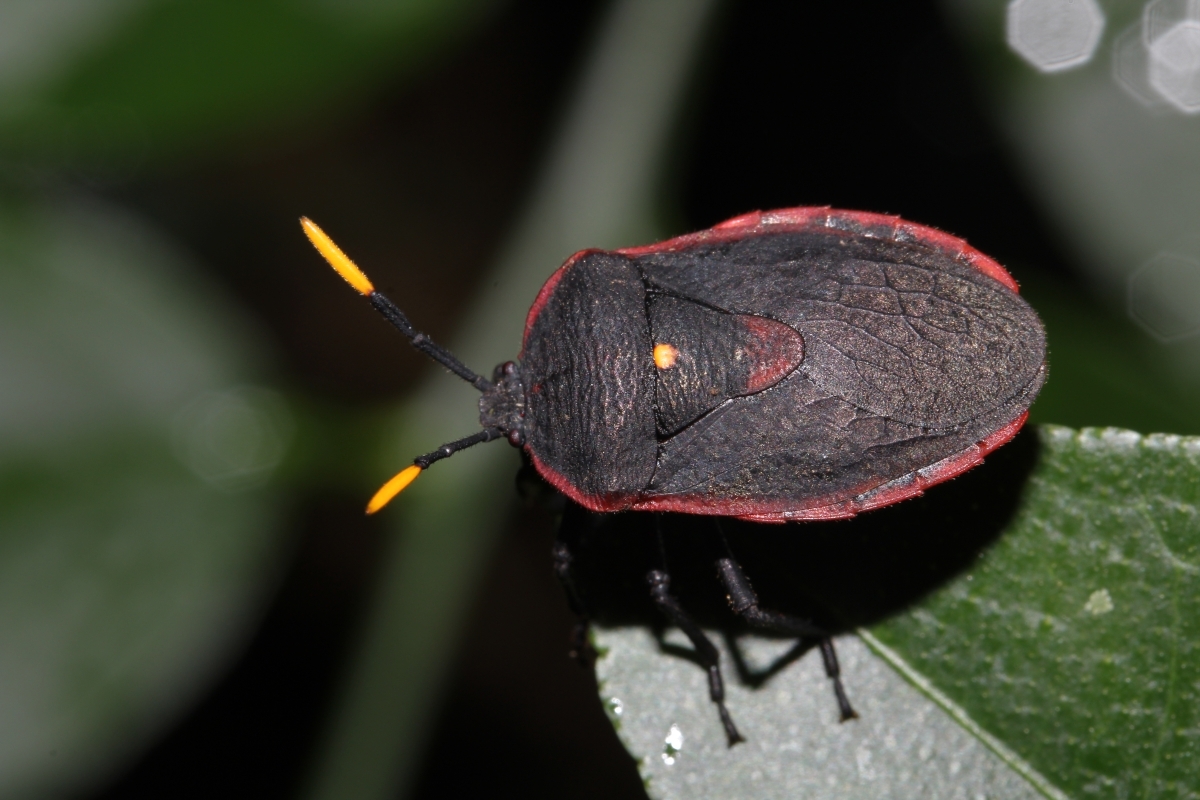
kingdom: Animalia
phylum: Arthropoda
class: Insecta
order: Hemiptera
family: Dinidoridae
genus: Dinidor
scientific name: Dinidor
